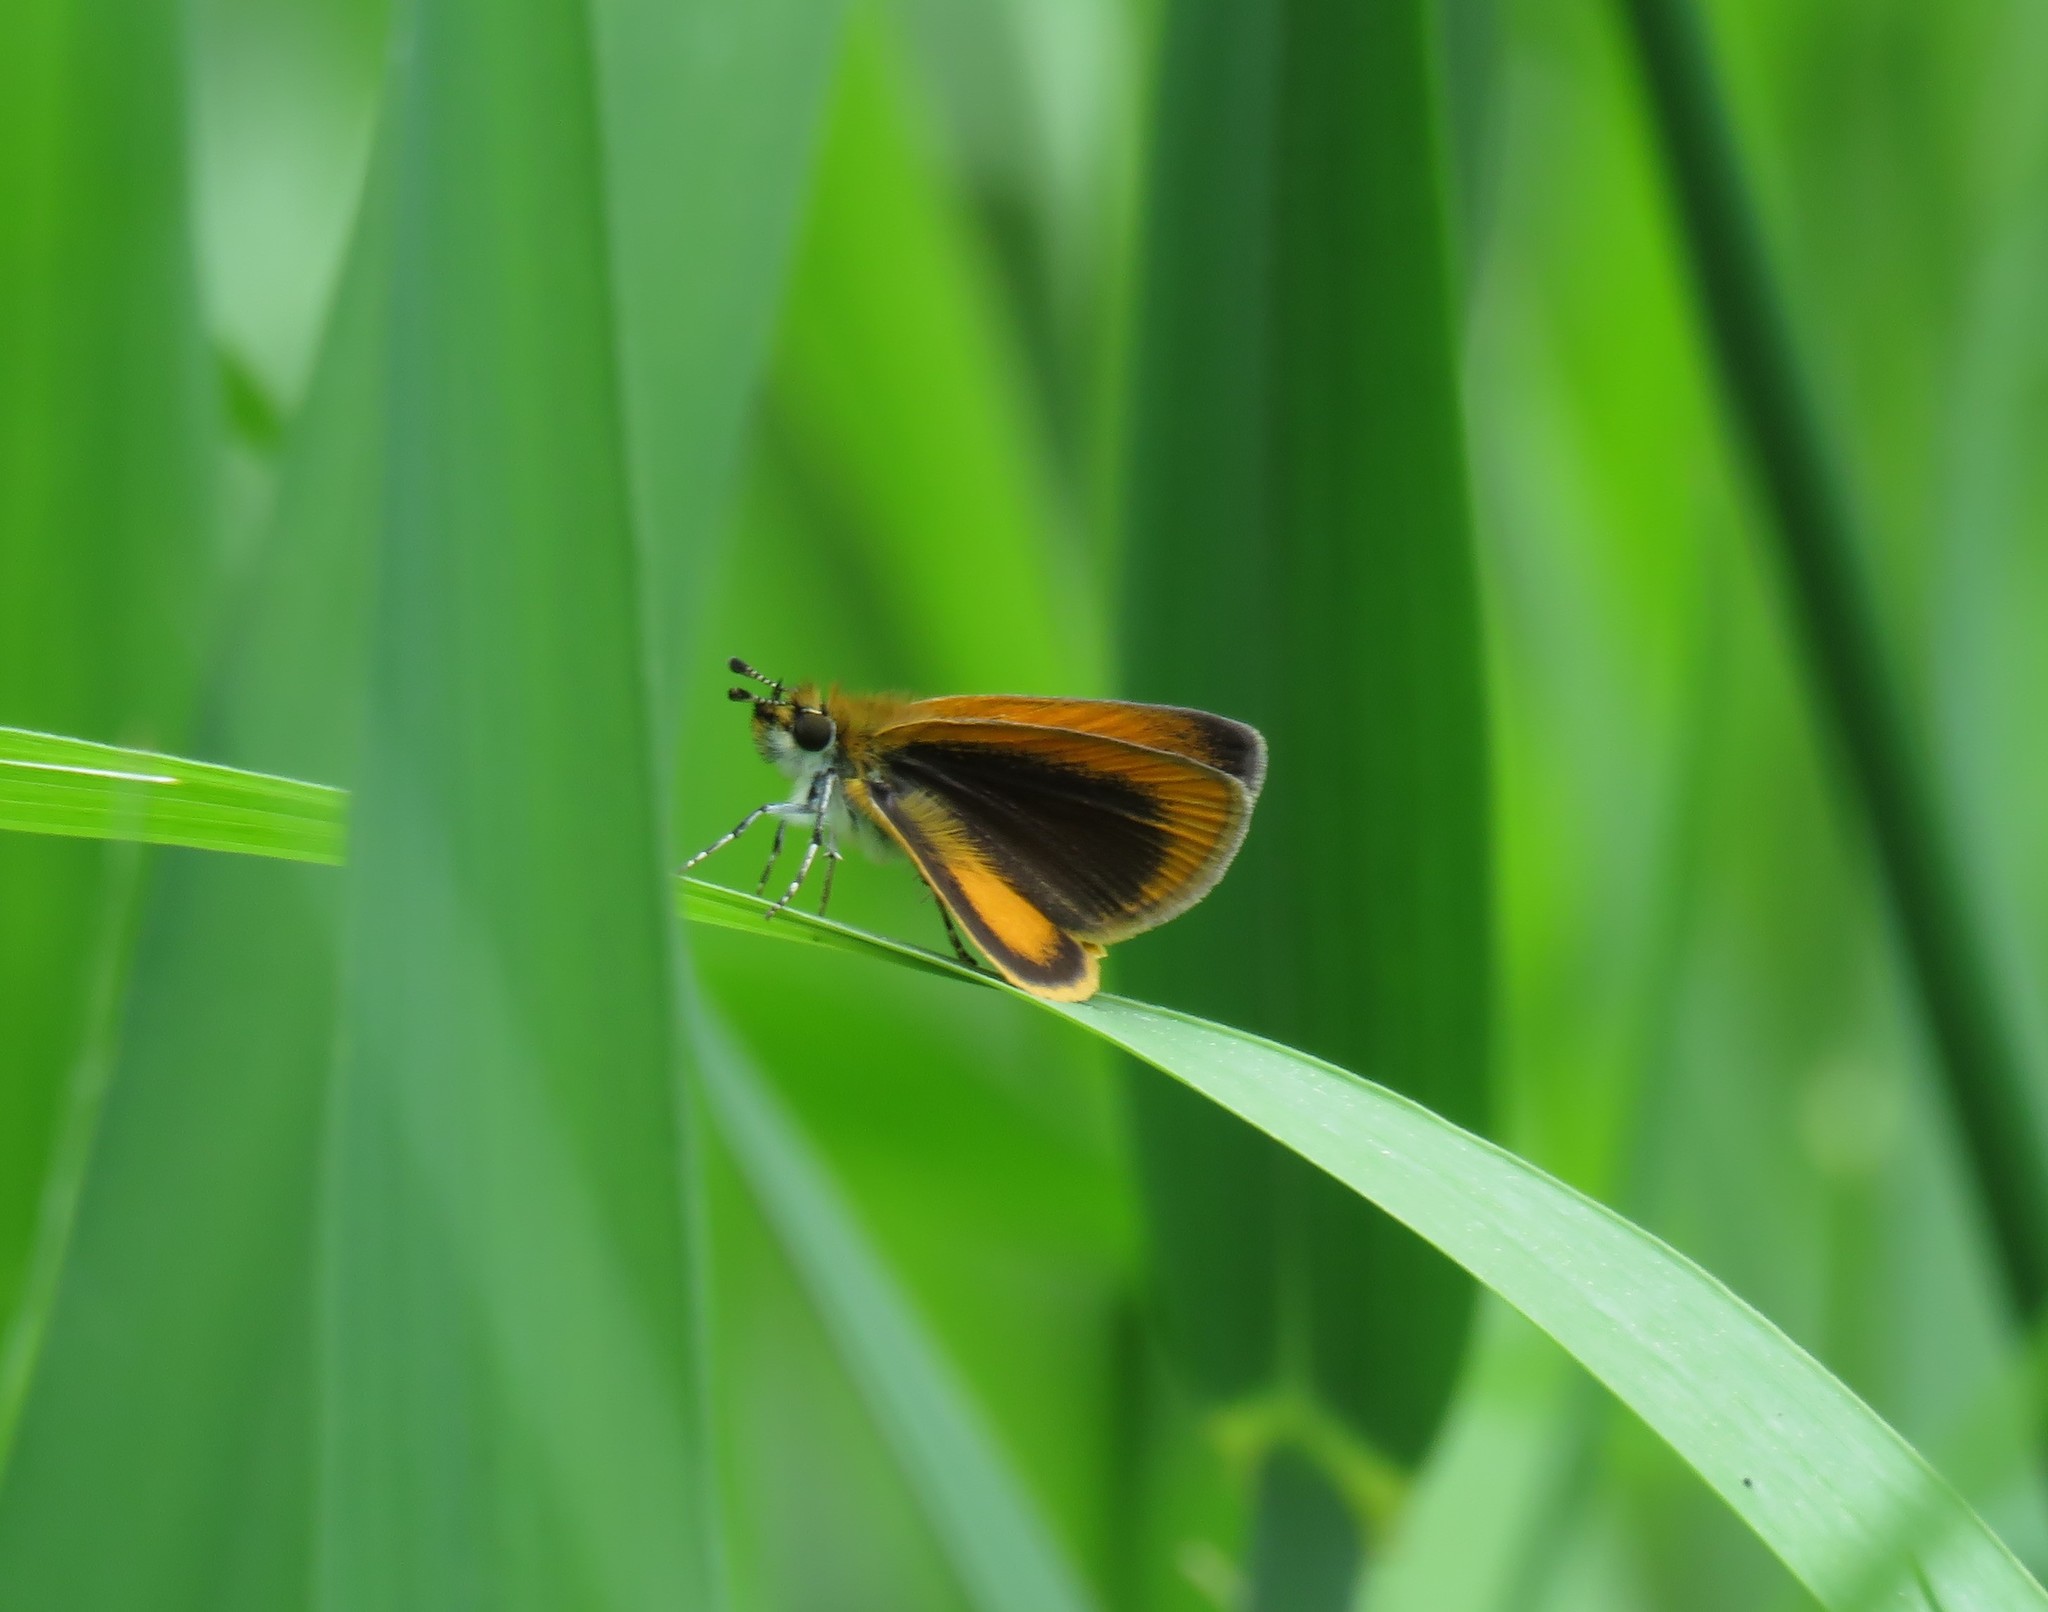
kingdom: Animalia
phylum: Arthropoda
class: Insecta
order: Lepidoptera
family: Hesperiidae
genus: Ancyloxypha
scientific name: Ancyloxypha numitor
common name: Least skipper
